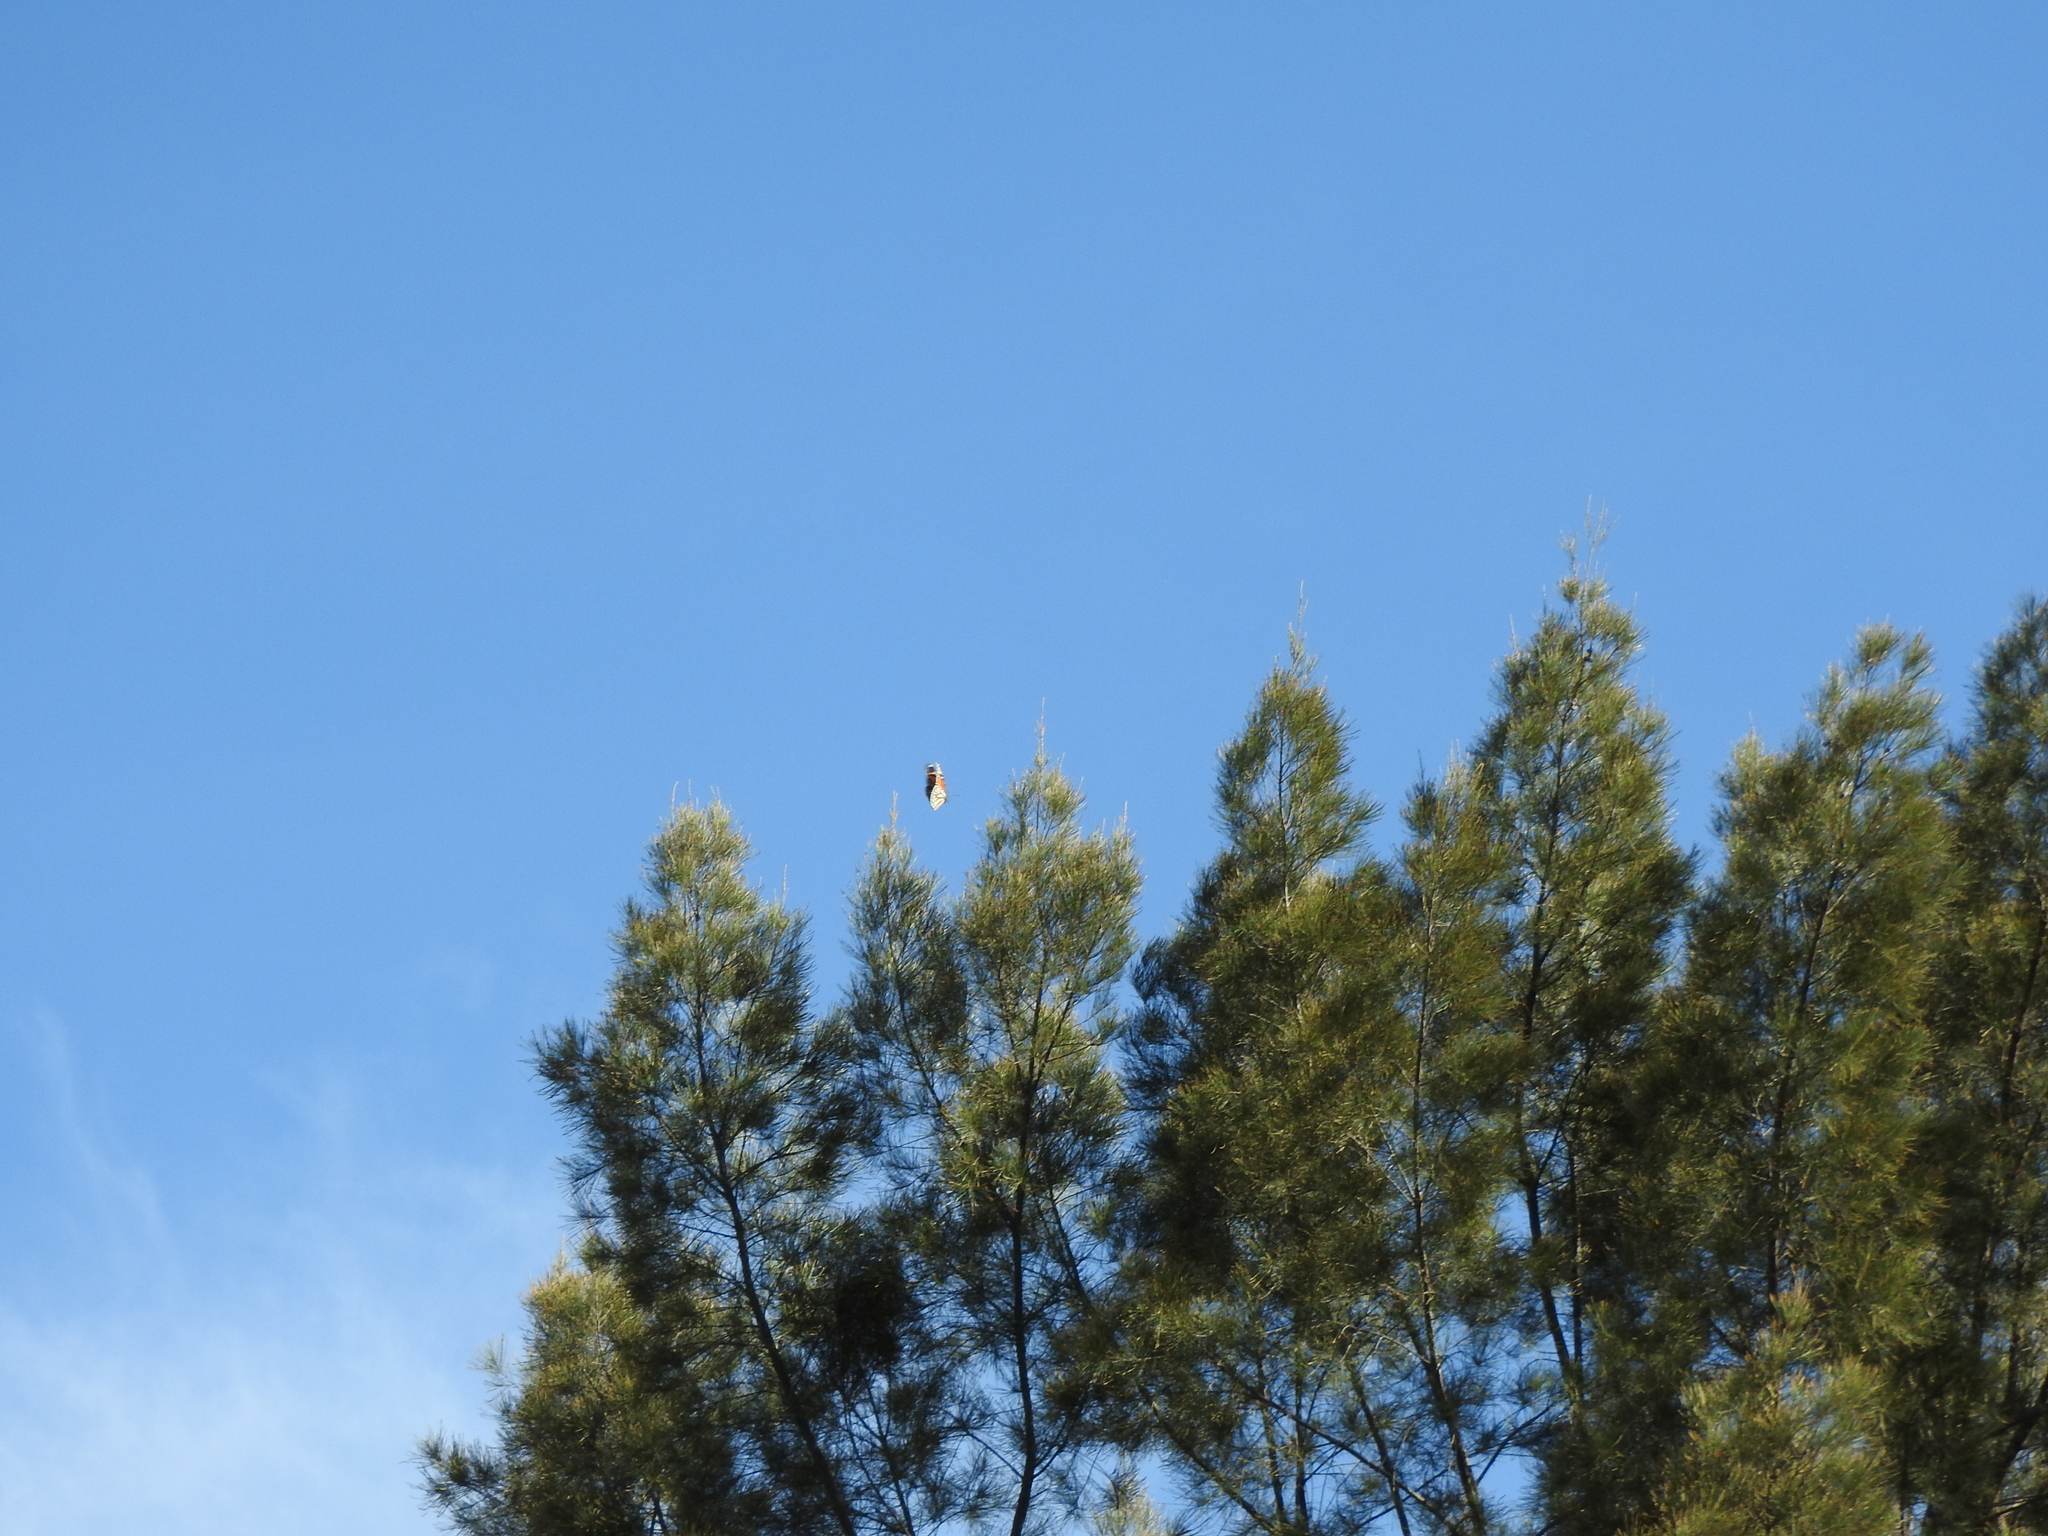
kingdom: Animalia
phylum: Arthropoda
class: Insecta
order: Lepidoptera
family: Nymphalidae
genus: Danaus
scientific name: Danaus plexippus
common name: Monarch
